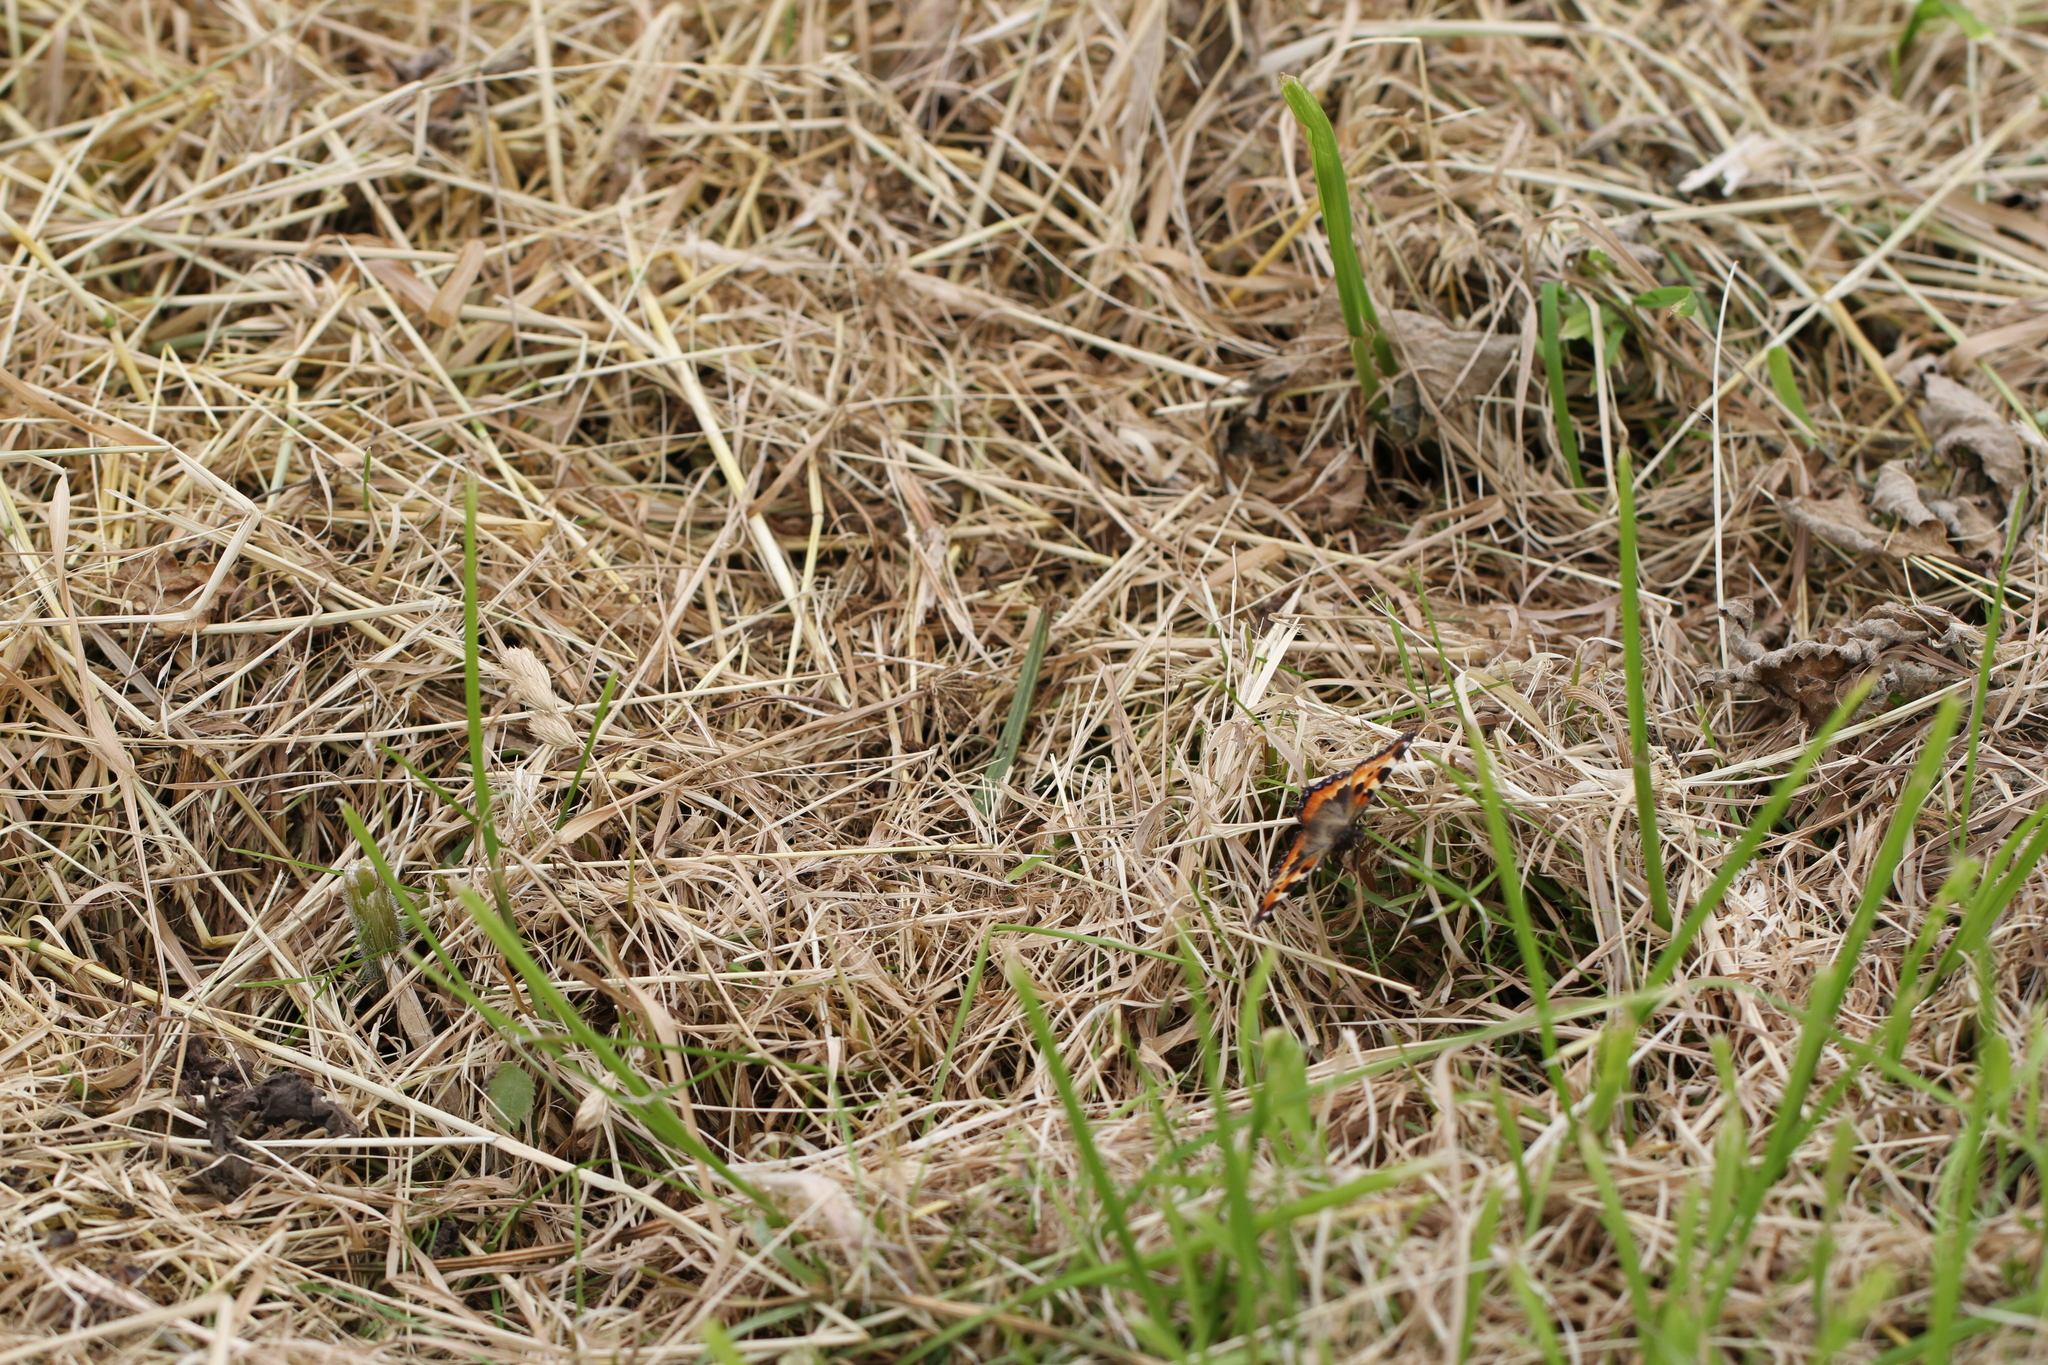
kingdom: Animalia
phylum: Arthropoda
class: Insecta
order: Lepidoptera
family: Nymphalidae
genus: Aglais
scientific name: Aglais urticae
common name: Small tortoiseshell
